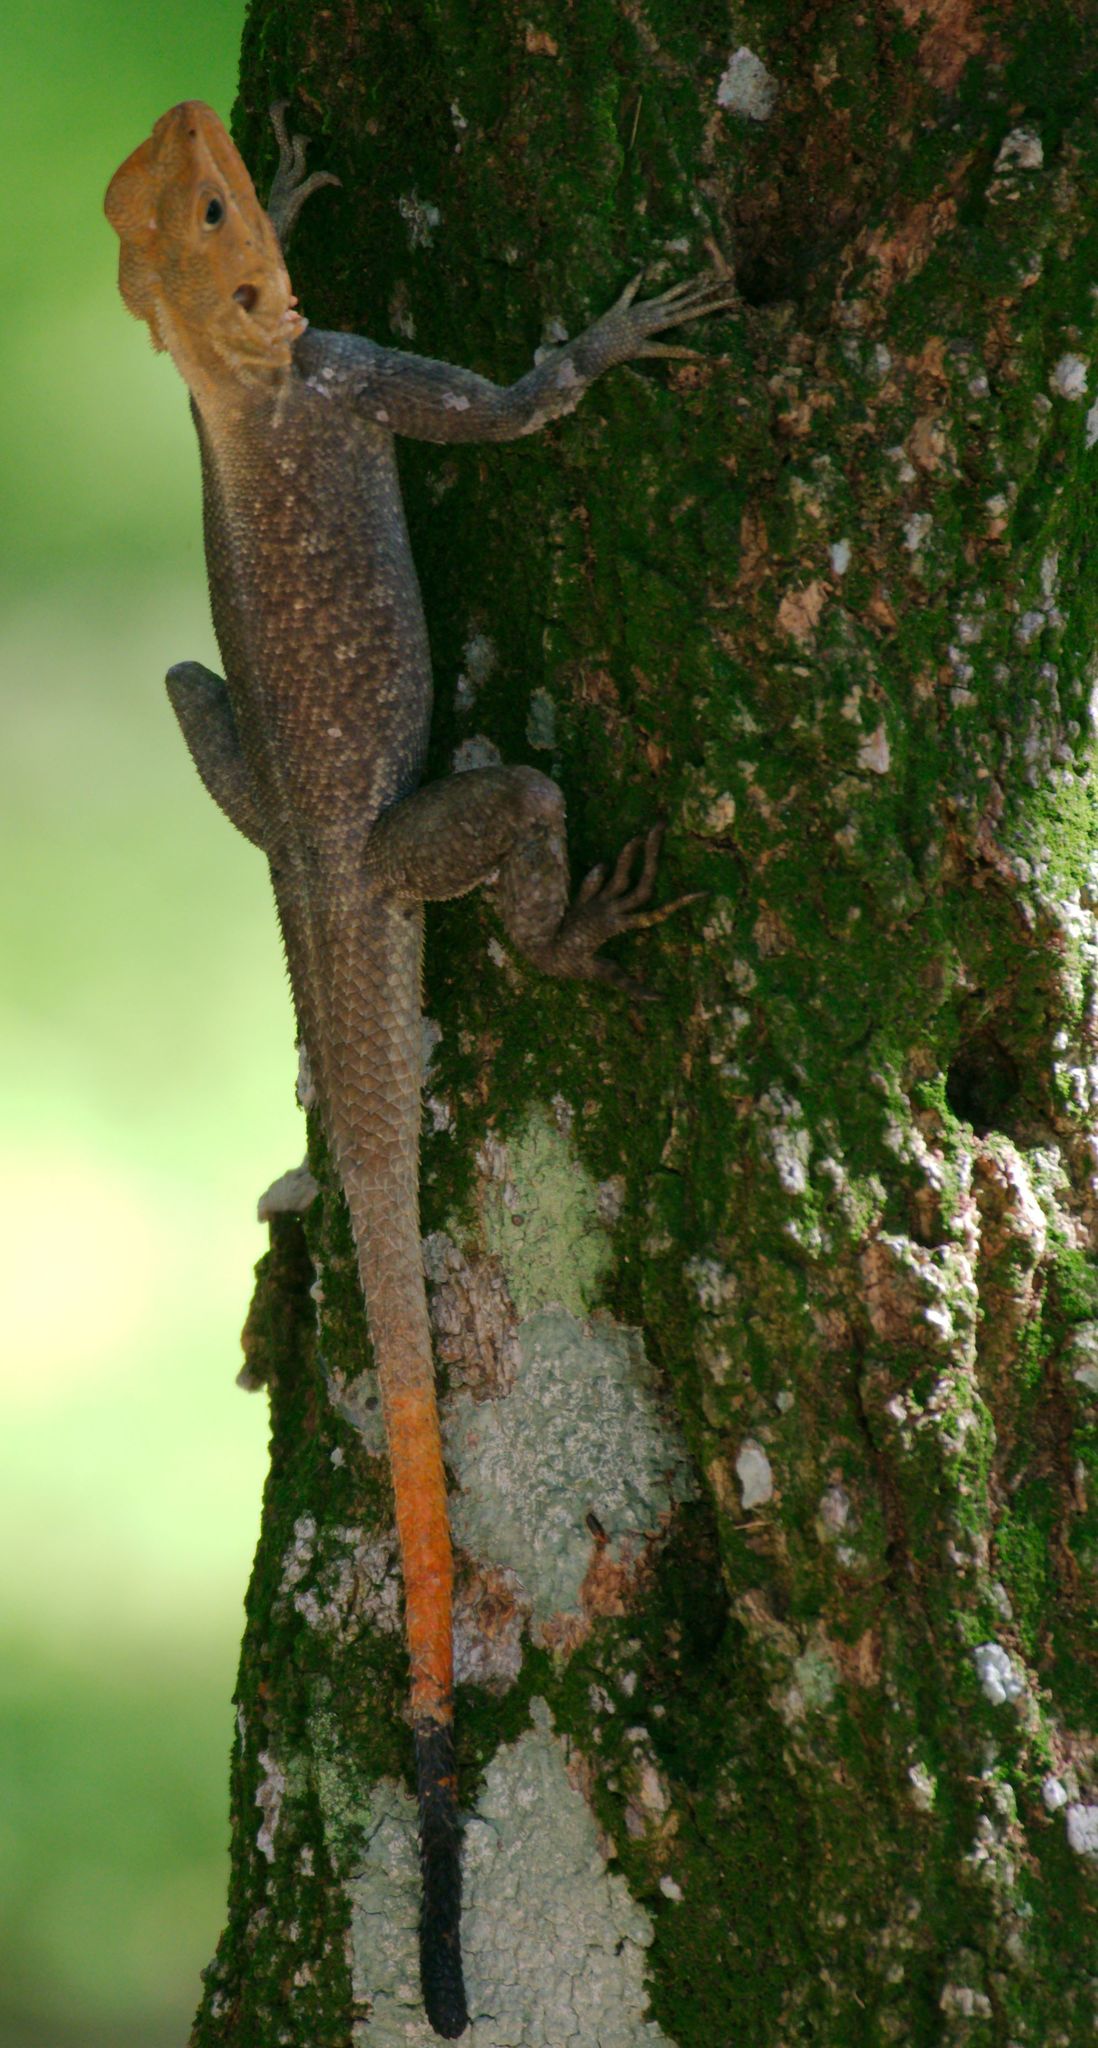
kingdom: Animalia
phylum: Chordata
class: Squamata
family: Agamidae
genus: Agama
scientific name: Agama picticauda
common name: Red-headed agama
